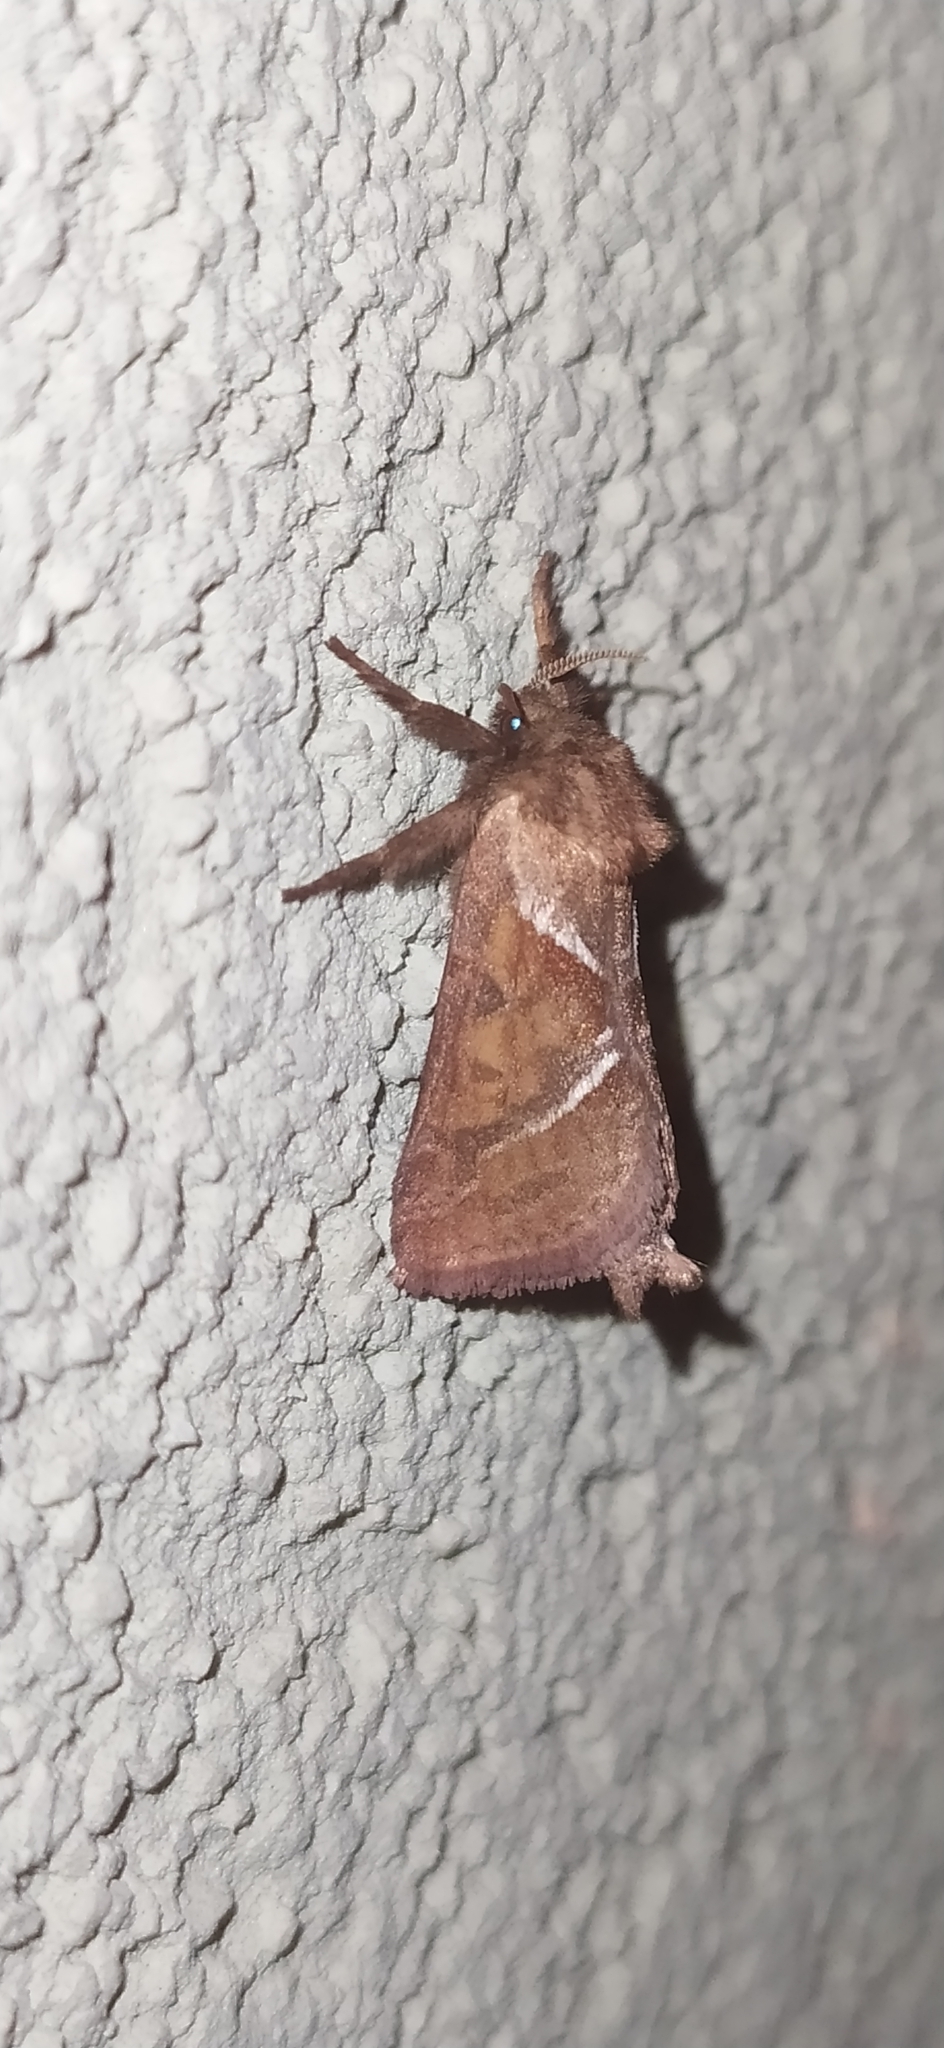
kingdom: Animalia
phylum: Arthropoda
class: Insecta
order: Lepidoptera
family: Hepialidae
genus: Triodia
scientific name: Triodia sylvina
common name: Orange swift
